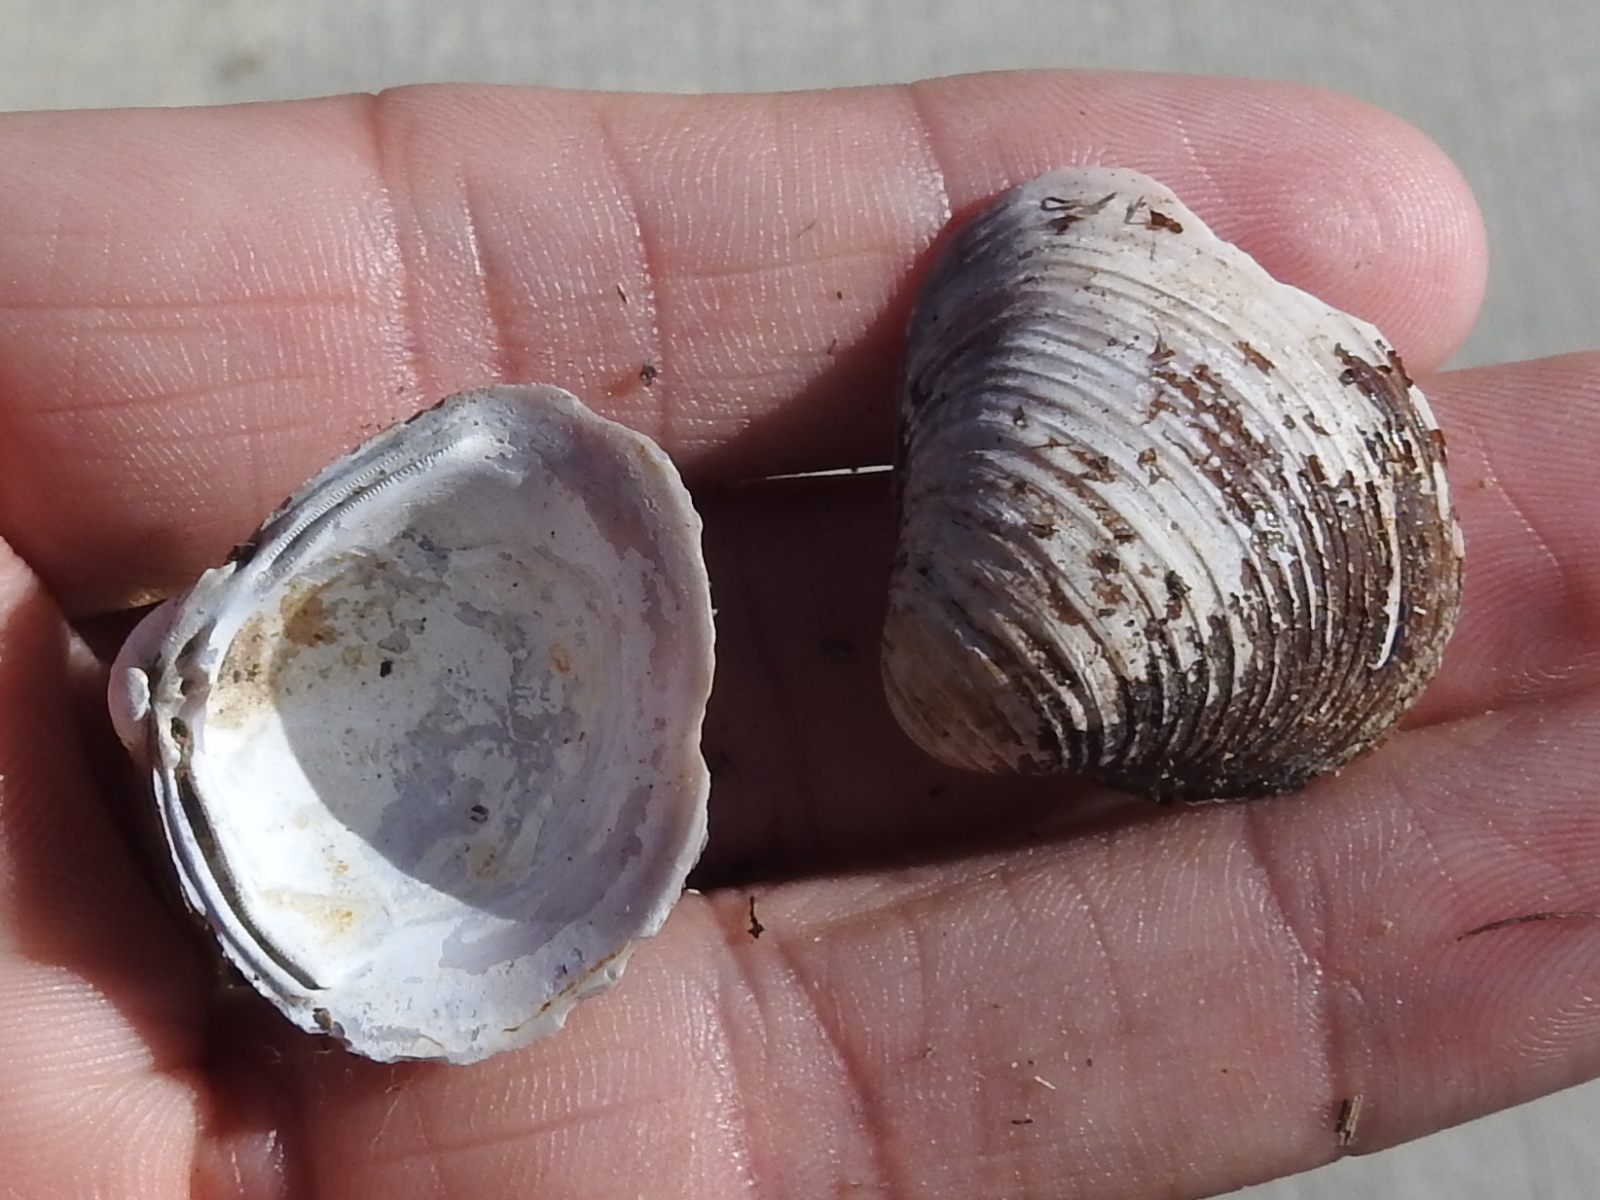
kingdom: Animalia
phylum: Mollusca
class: Bivalvia
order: Venerida
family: Cyrenidae
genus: Corbicula
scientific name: Corbicula fluminea
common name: Asian clam
